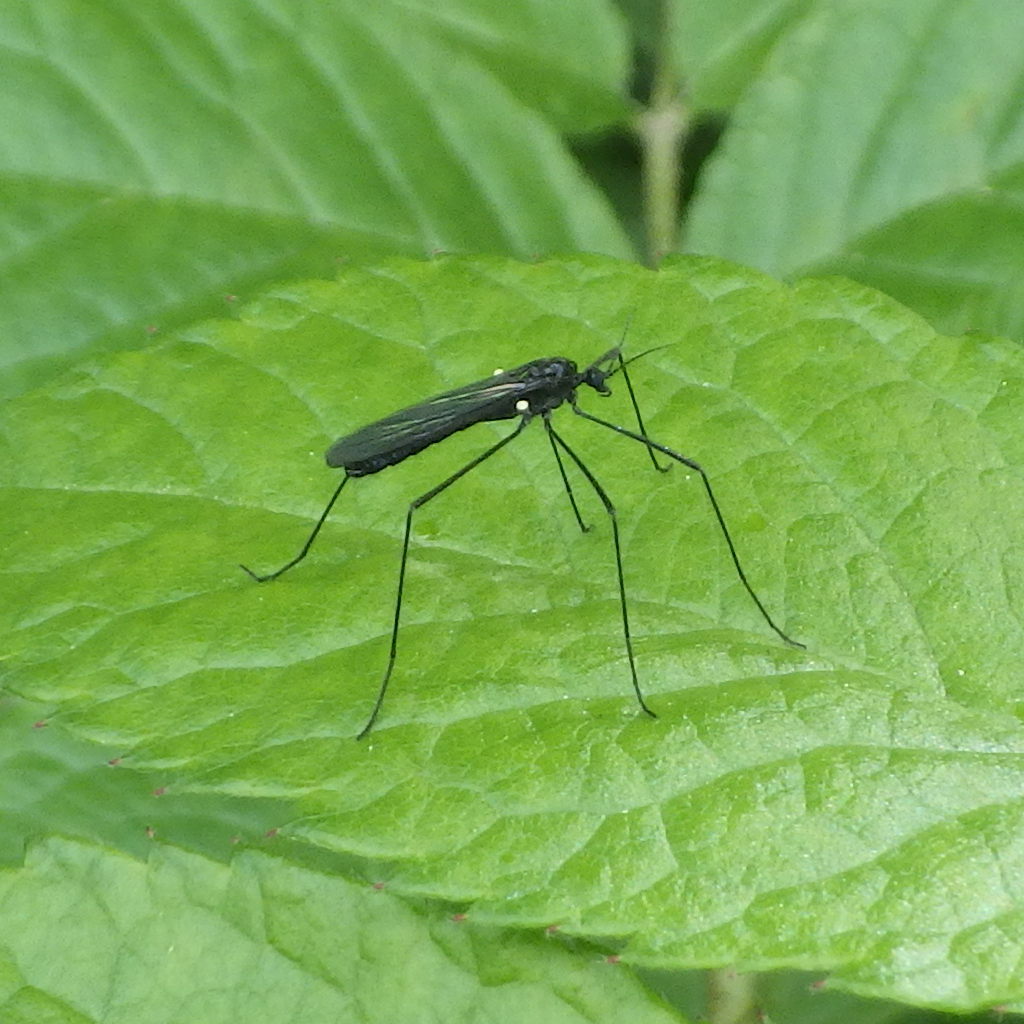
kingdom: Animalia
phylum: Arthropoda
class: Insecta
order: Diptera
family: Limoniidae
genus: Gnophomyia
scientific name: Gnophomyia tristissima
